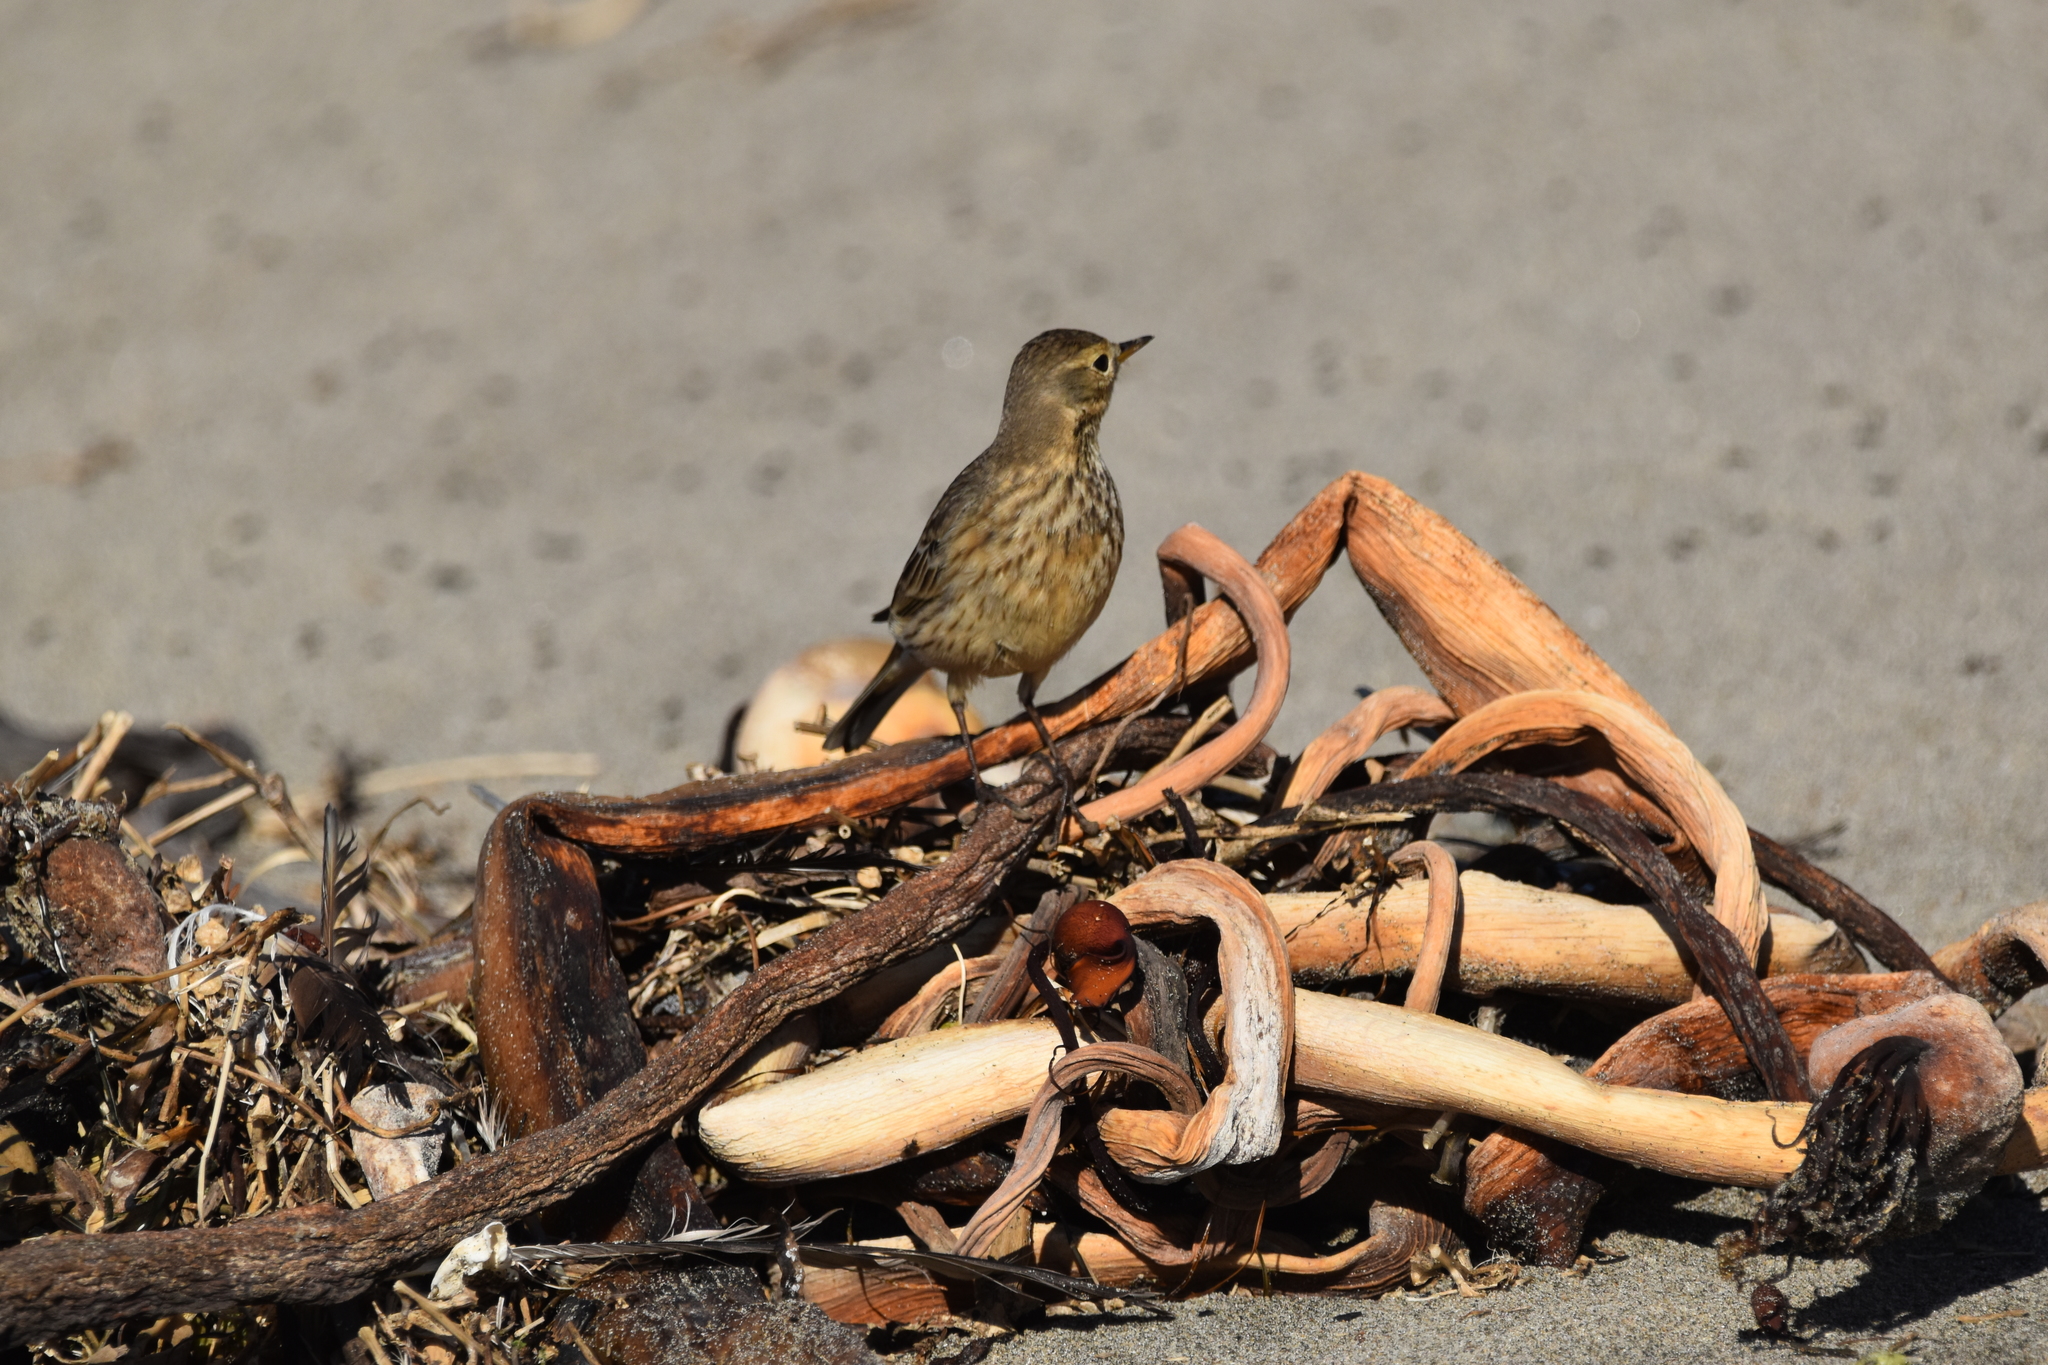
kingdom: Animalia
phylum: Chordata
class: Aves
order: Passeriformes
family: Motacillidae
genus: Anthus
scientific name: Anthus rubescens
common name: Buff-bellied pipit
